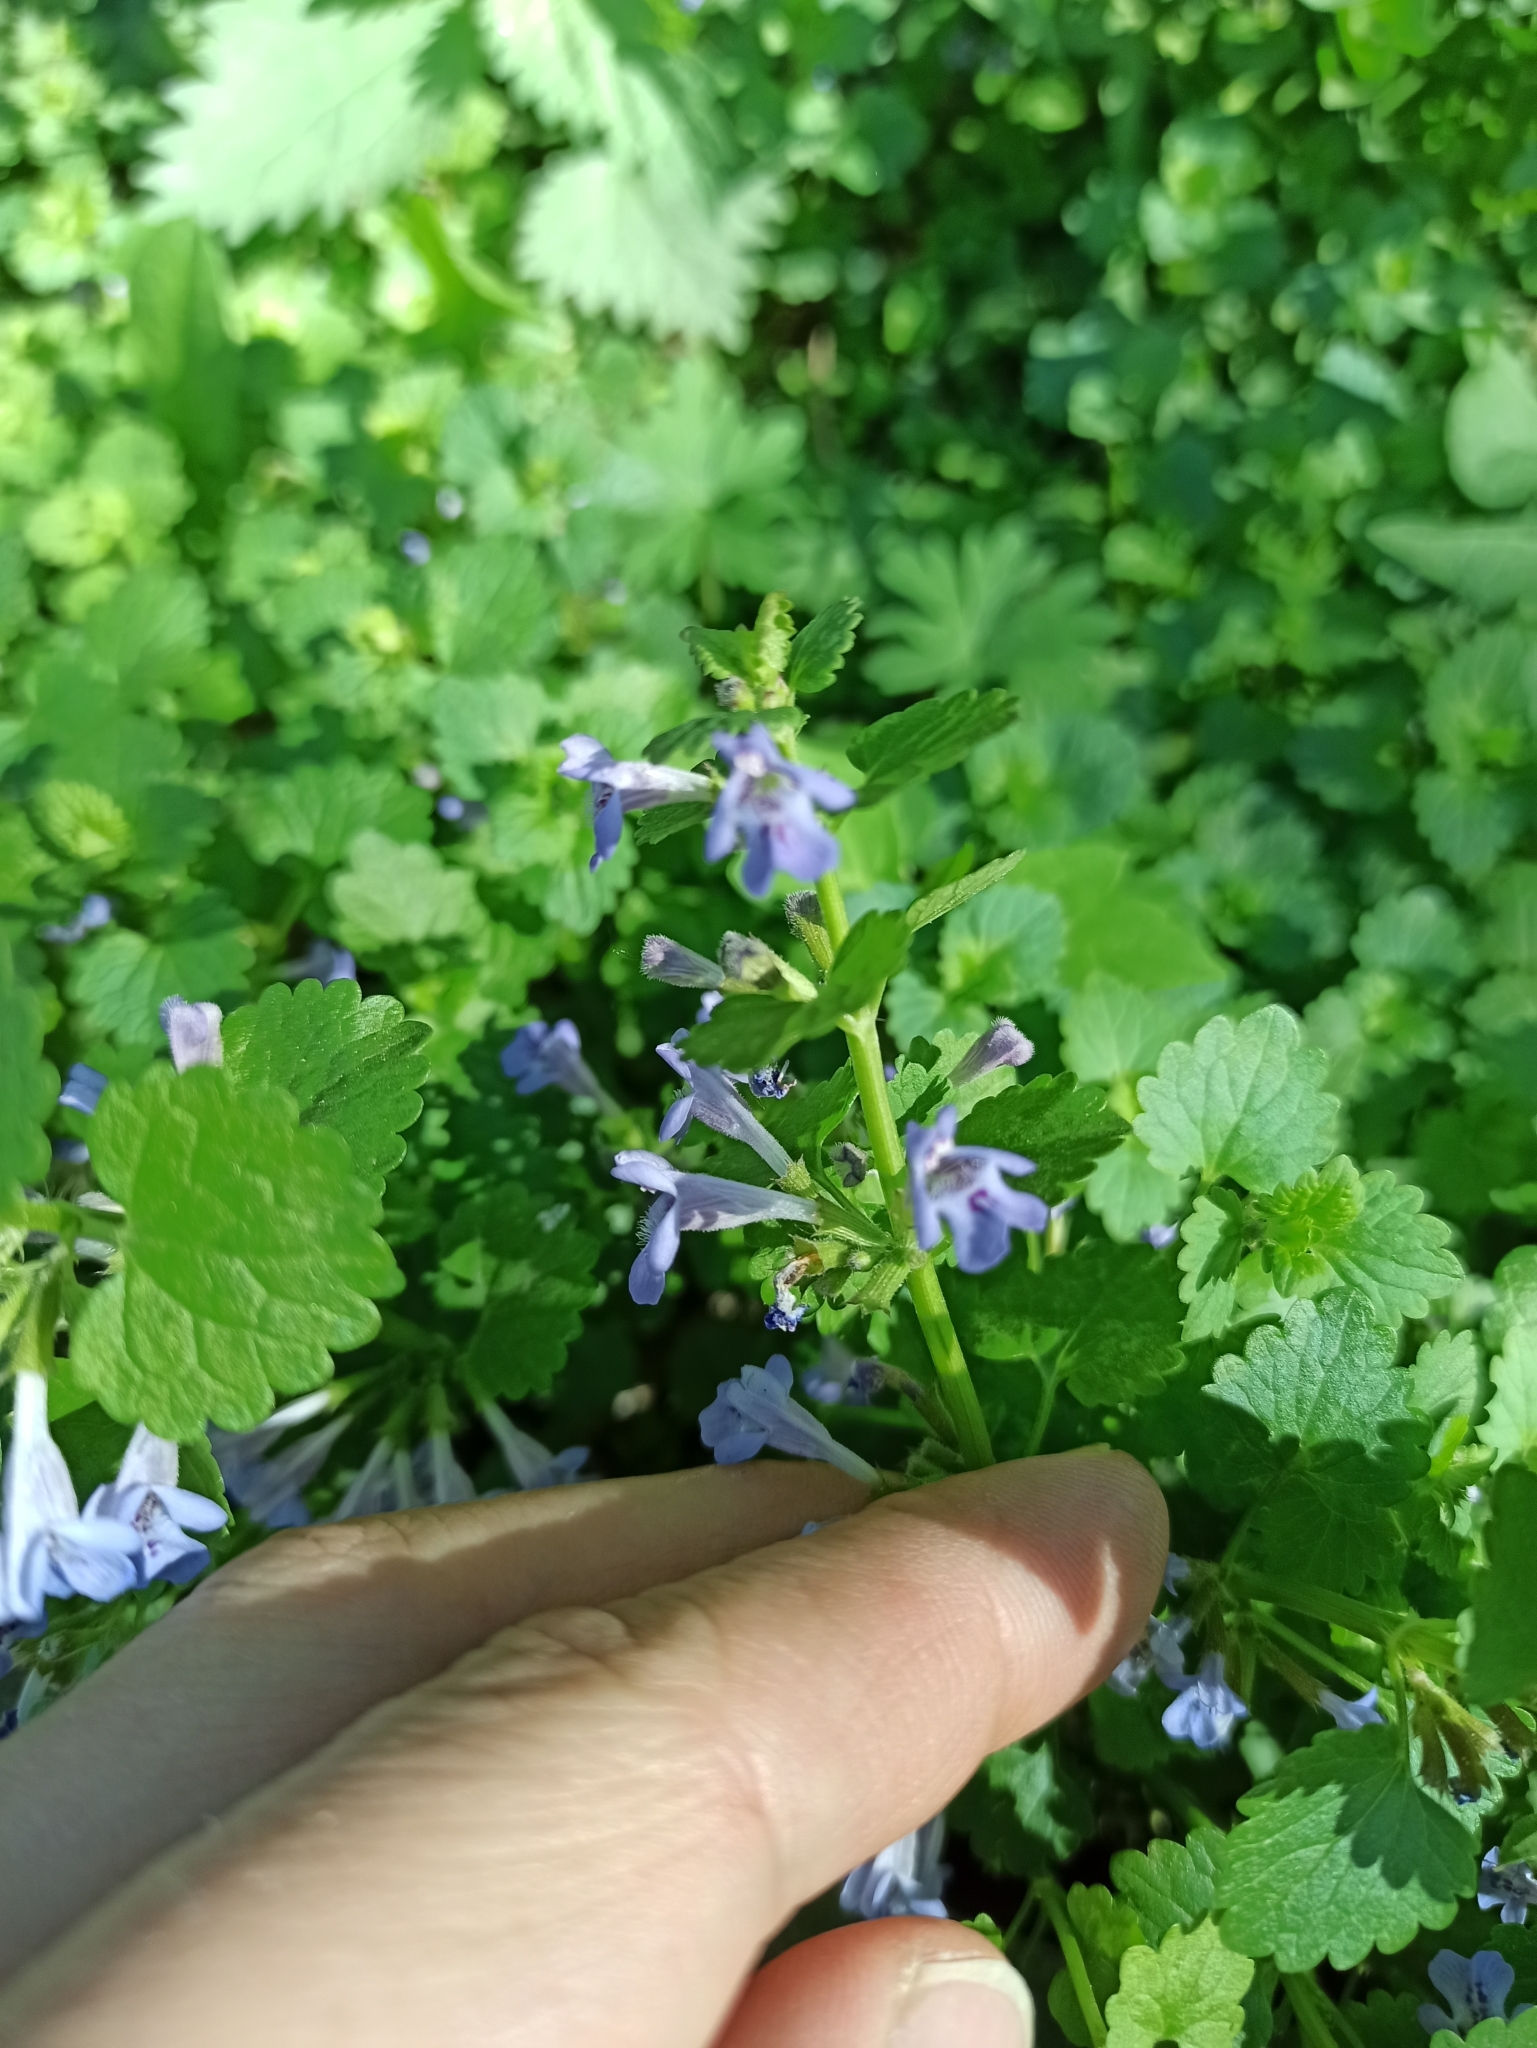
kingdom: Plantae
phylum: Tracheophyta
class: Magnoliopsida
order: Lamiales
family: Lamiaceae
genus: Glechoma
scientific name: Glechoma hederacea
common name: Ground ivy
